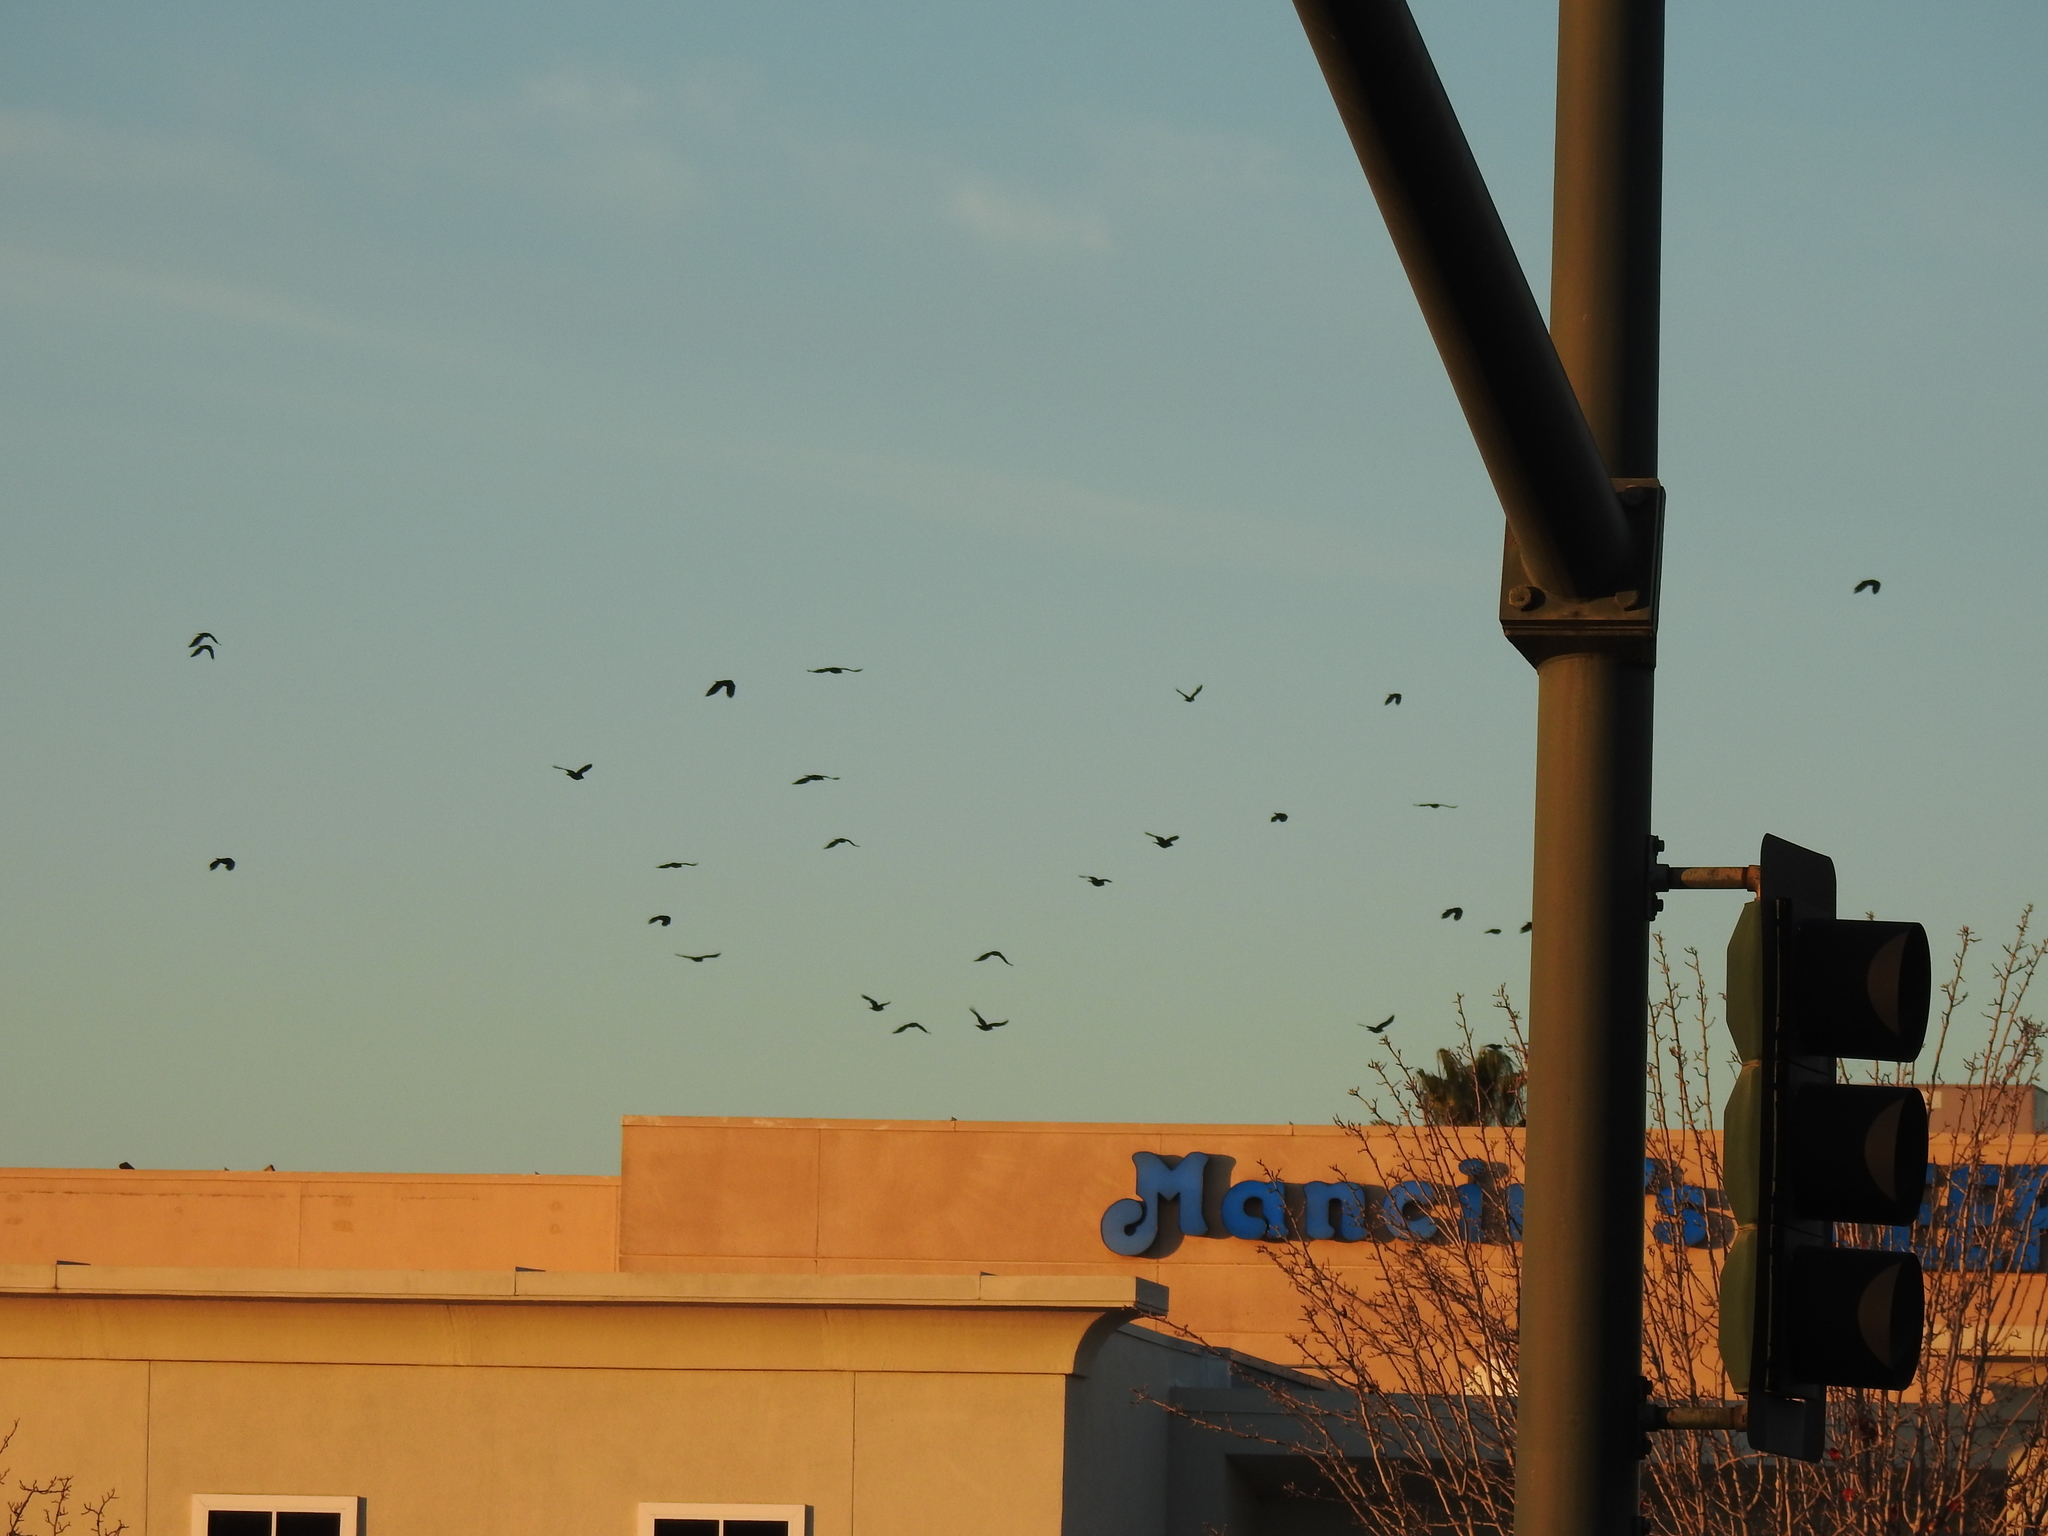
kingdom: Animalia
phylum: Chordata
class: Aves
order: Passeriformes
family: Corvidae
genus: Corvus
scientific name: Corvus brachyrhynchos
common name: American crow
